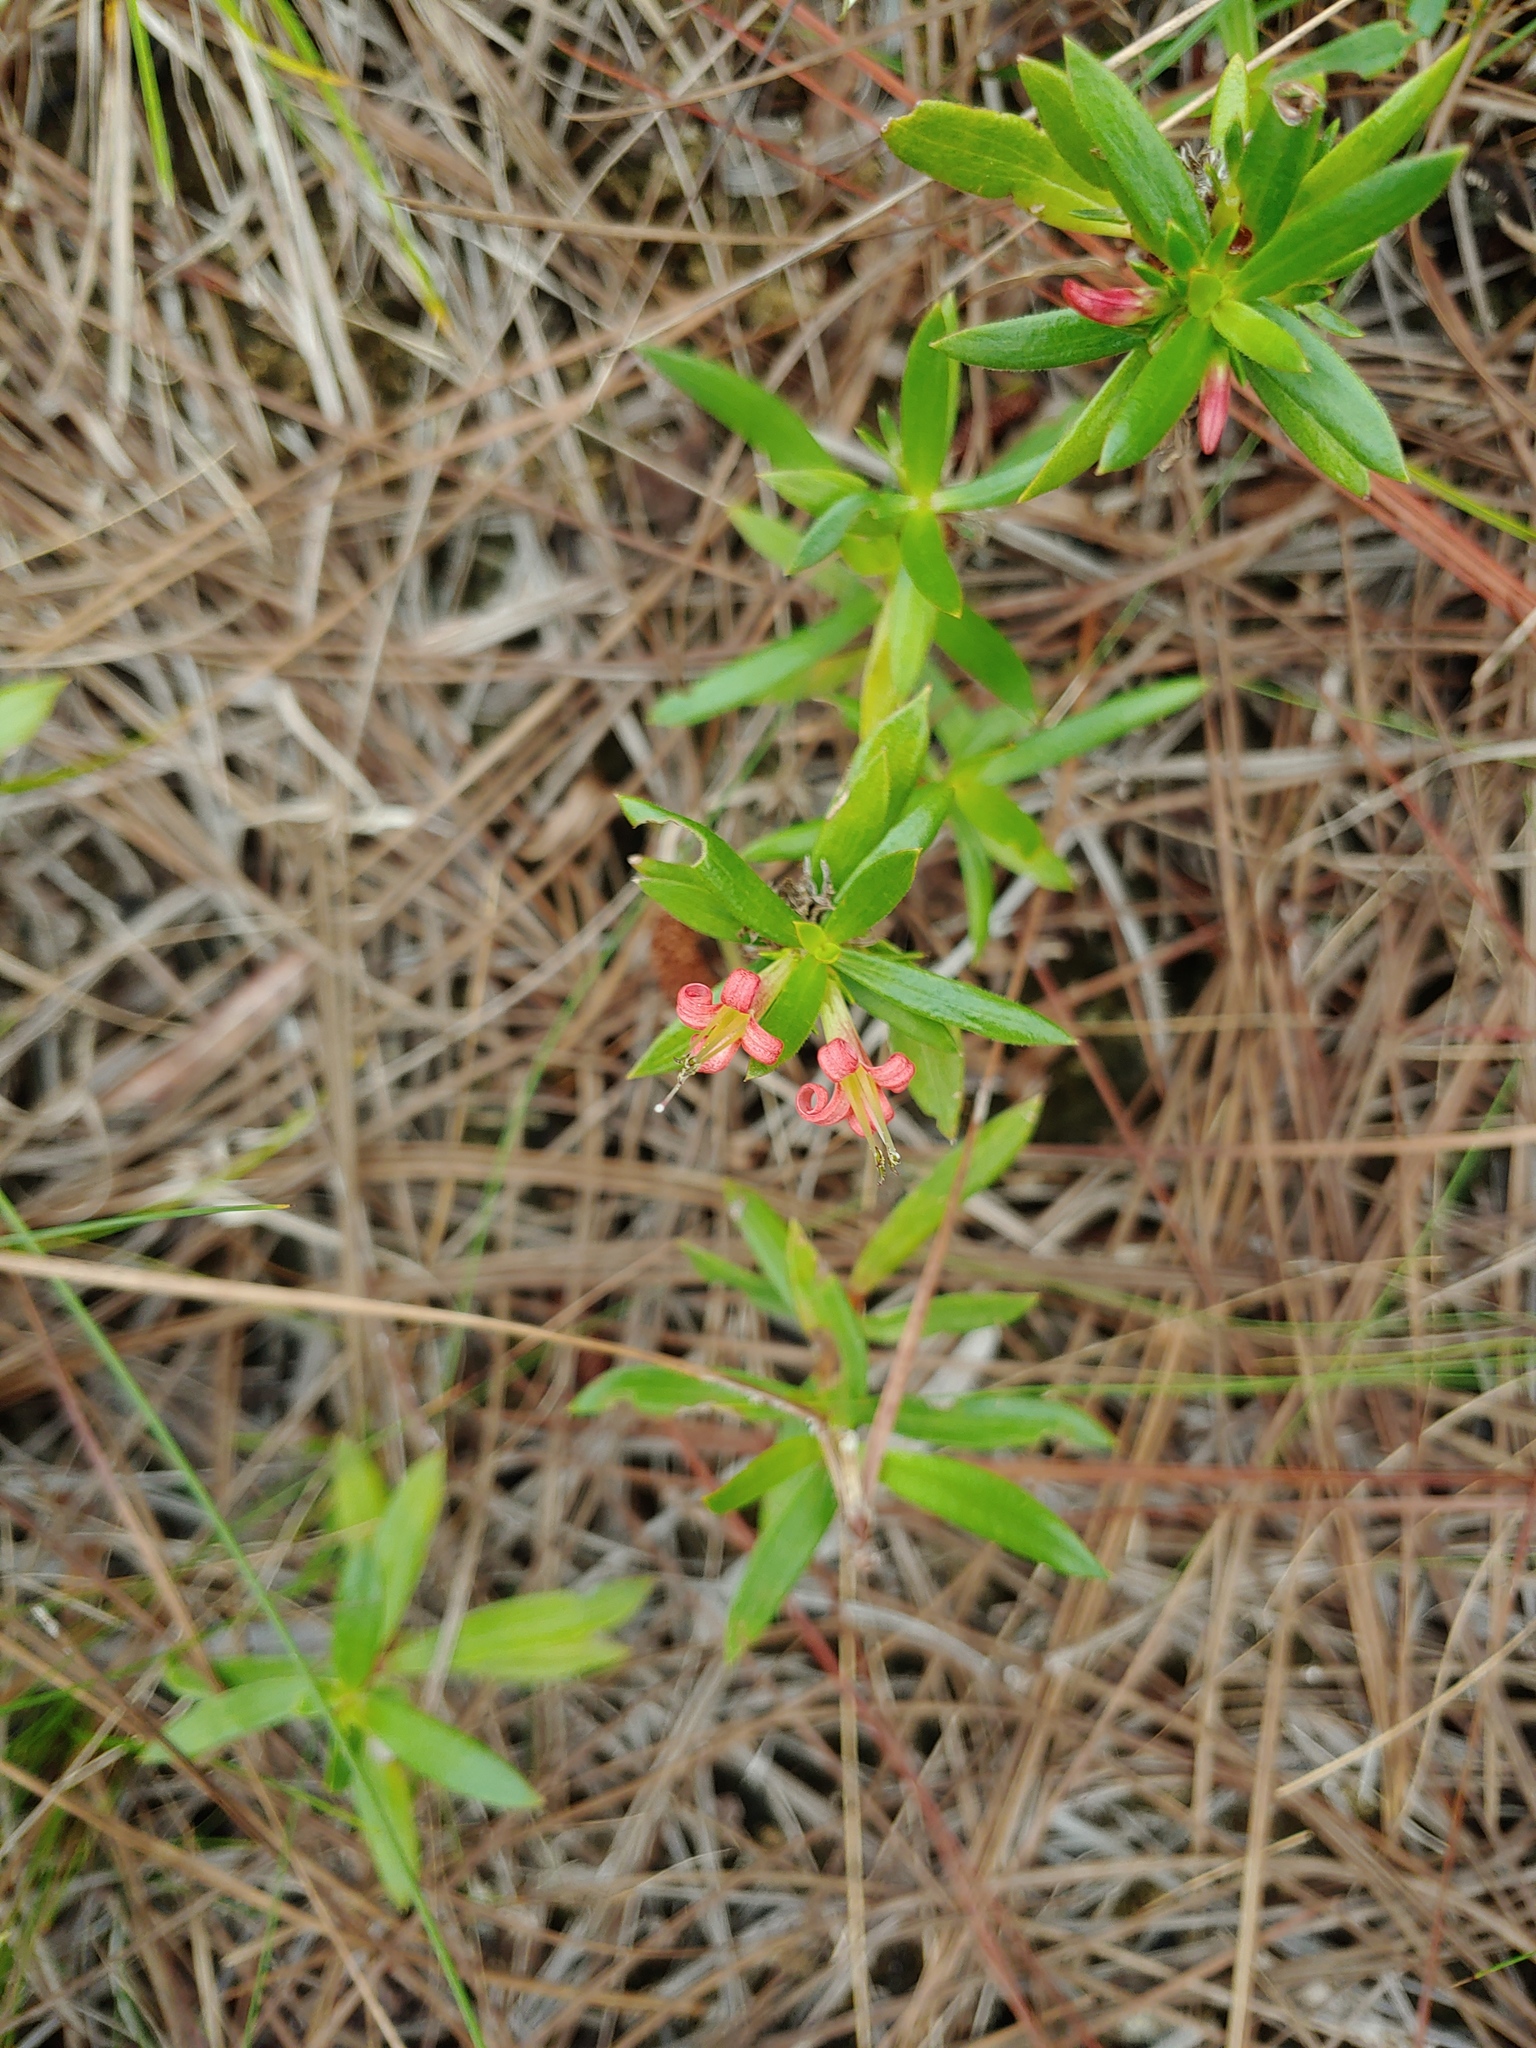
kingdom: Plantae
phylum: Tracheophyta
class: Magnoliopsida
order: Gentianales
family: Rubiaceae
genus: Ernodea
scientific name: Ernodea littoralis
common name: Beach creeper
